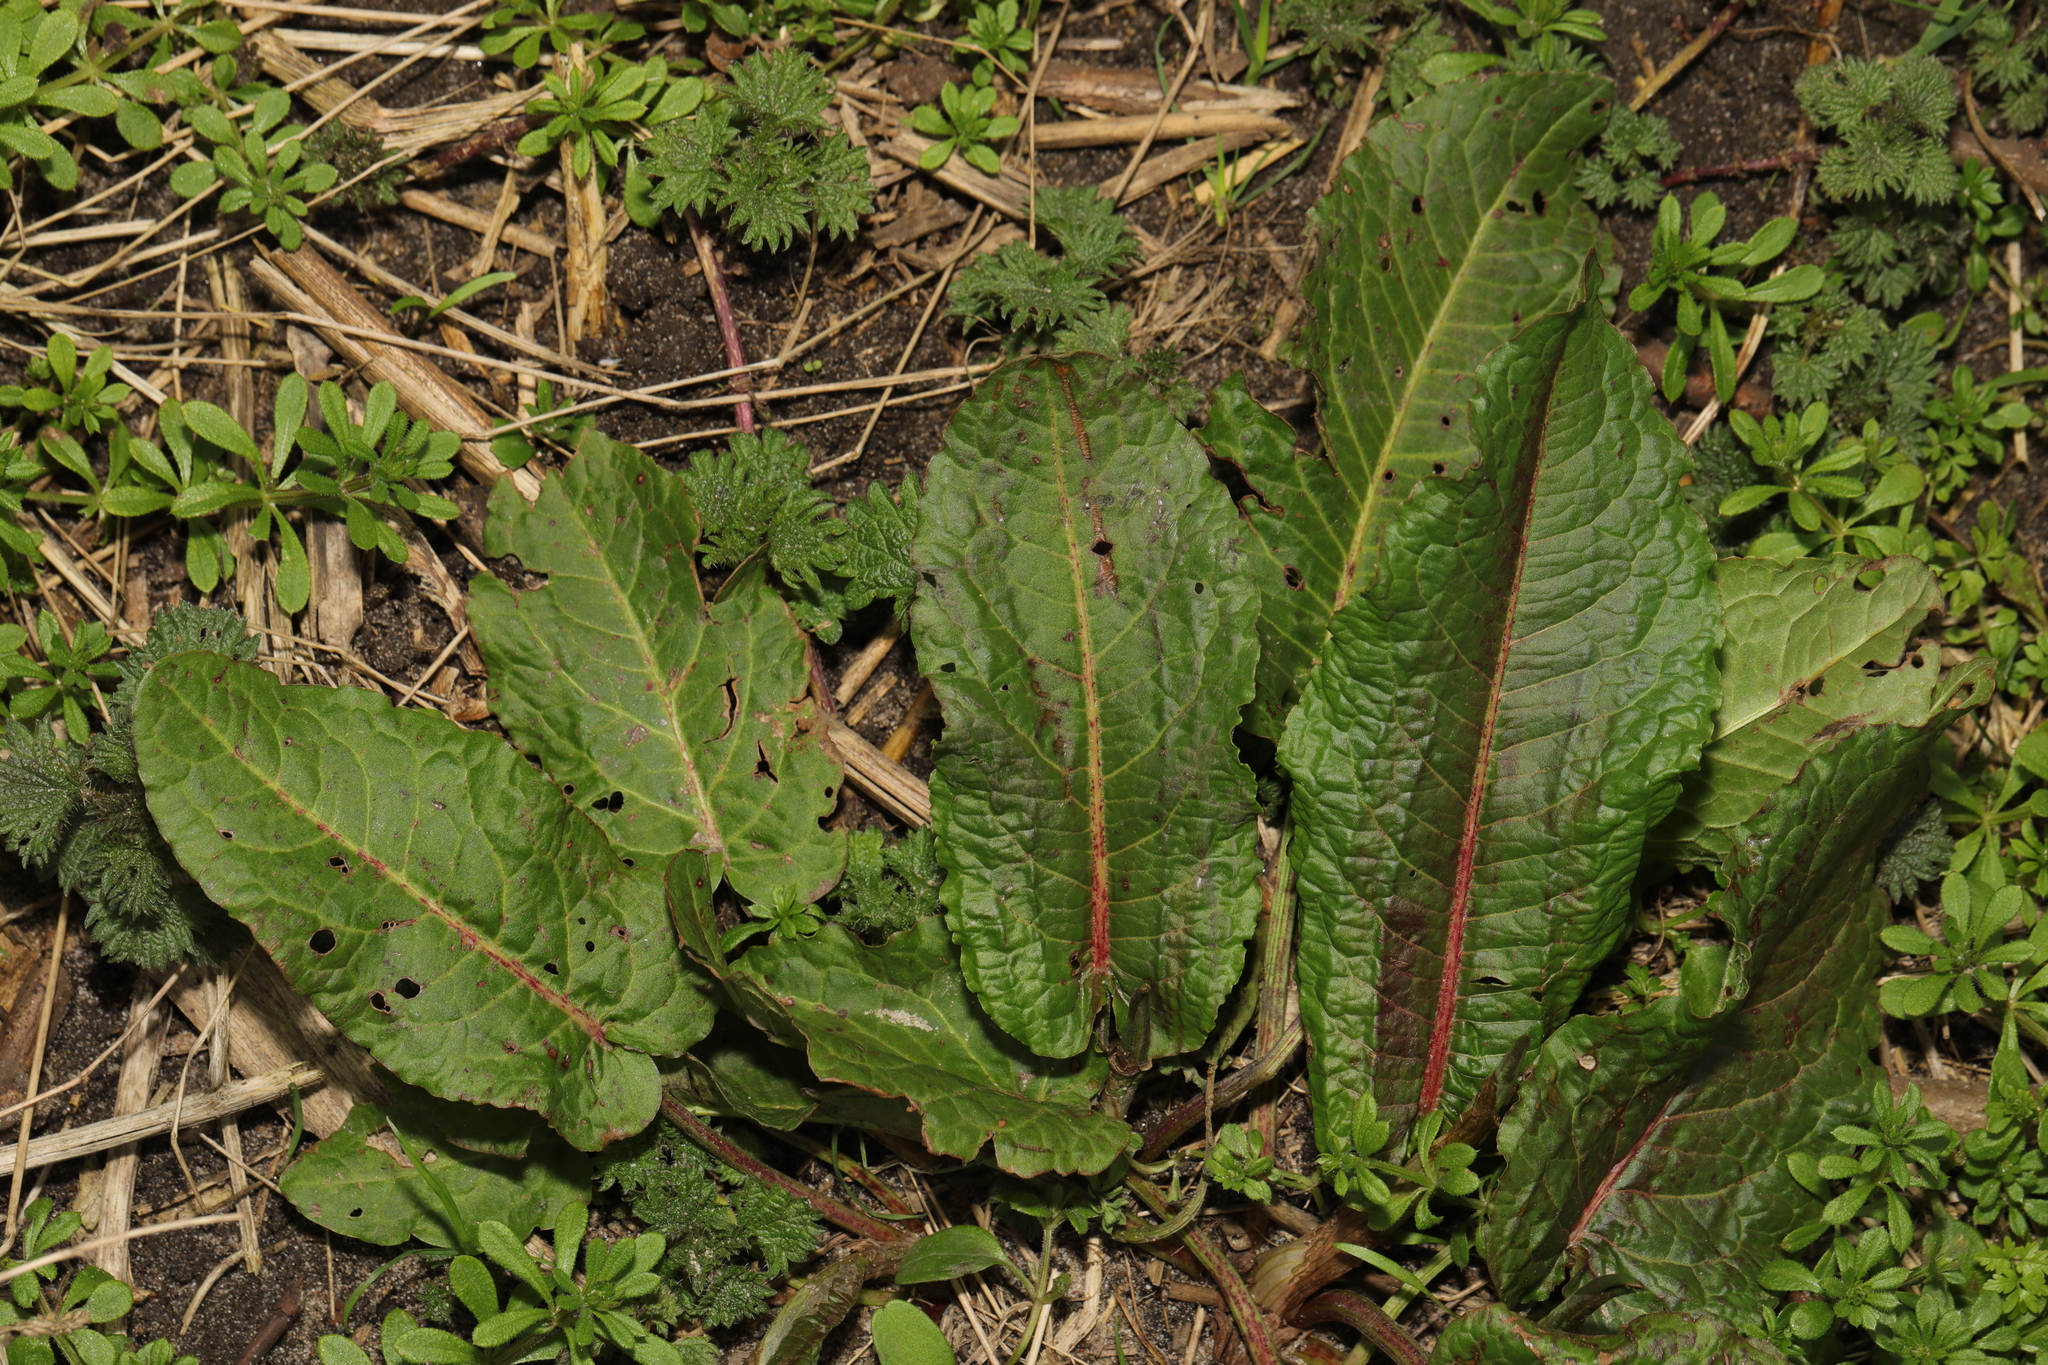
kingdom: Plantae
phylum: Tracheophyta
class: Magnoliopsida
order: Caryophyllales
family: Polygonaceae
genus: Rumex
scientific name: Rumex obtusifolius
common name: Bitter dock
